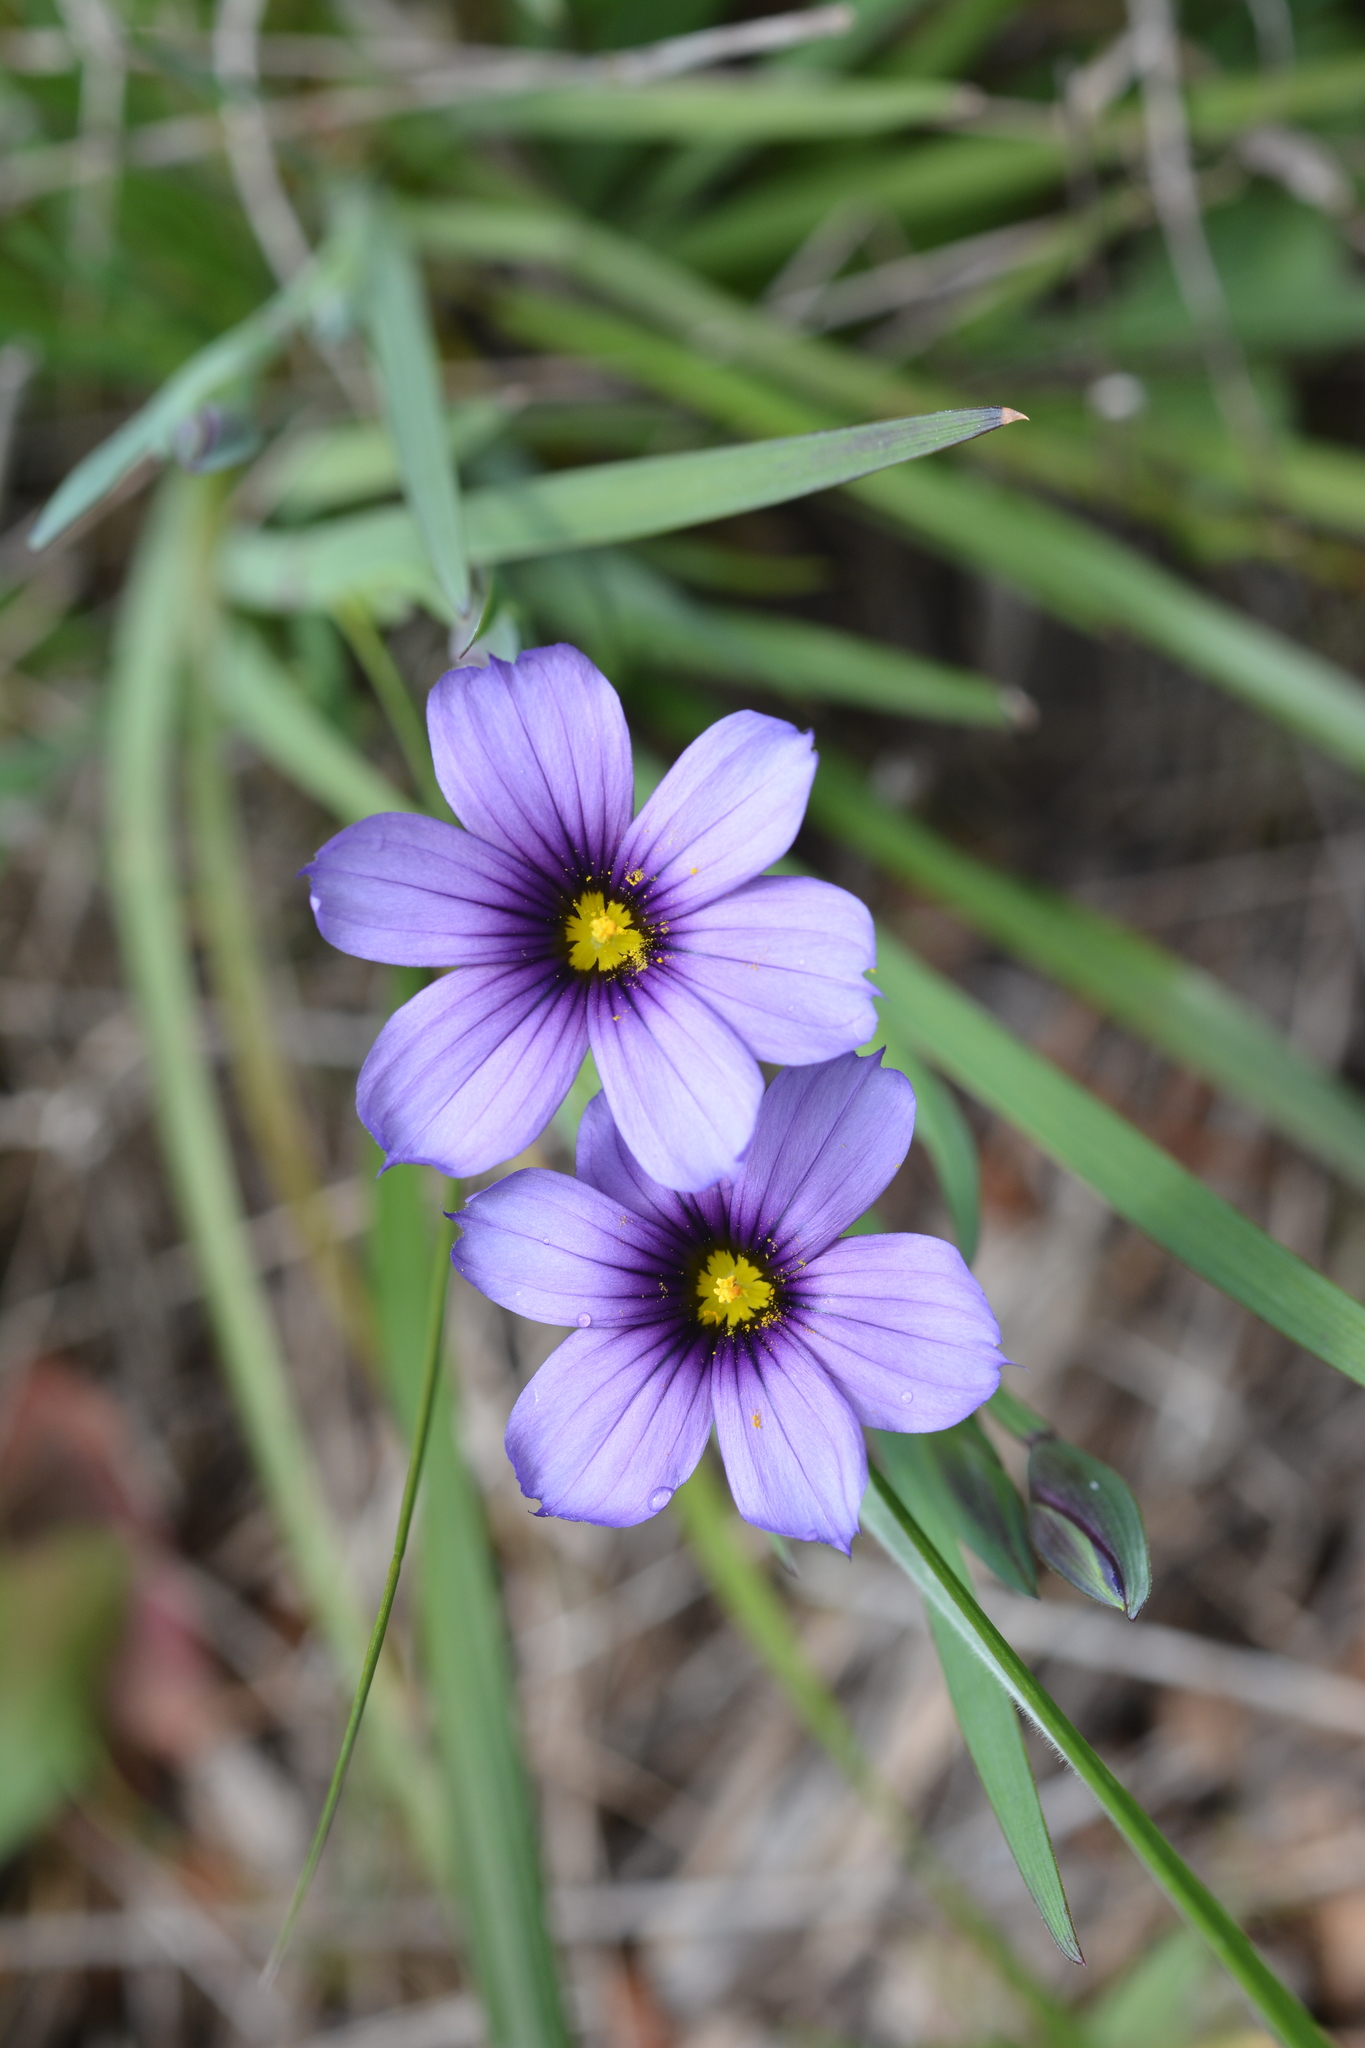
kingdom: Plantae
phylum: Tracheophyta
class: Liliopsida
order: Asparagales
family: Iridaceae
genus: Sisyrinchium
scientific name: Sisyrinchium bellum
